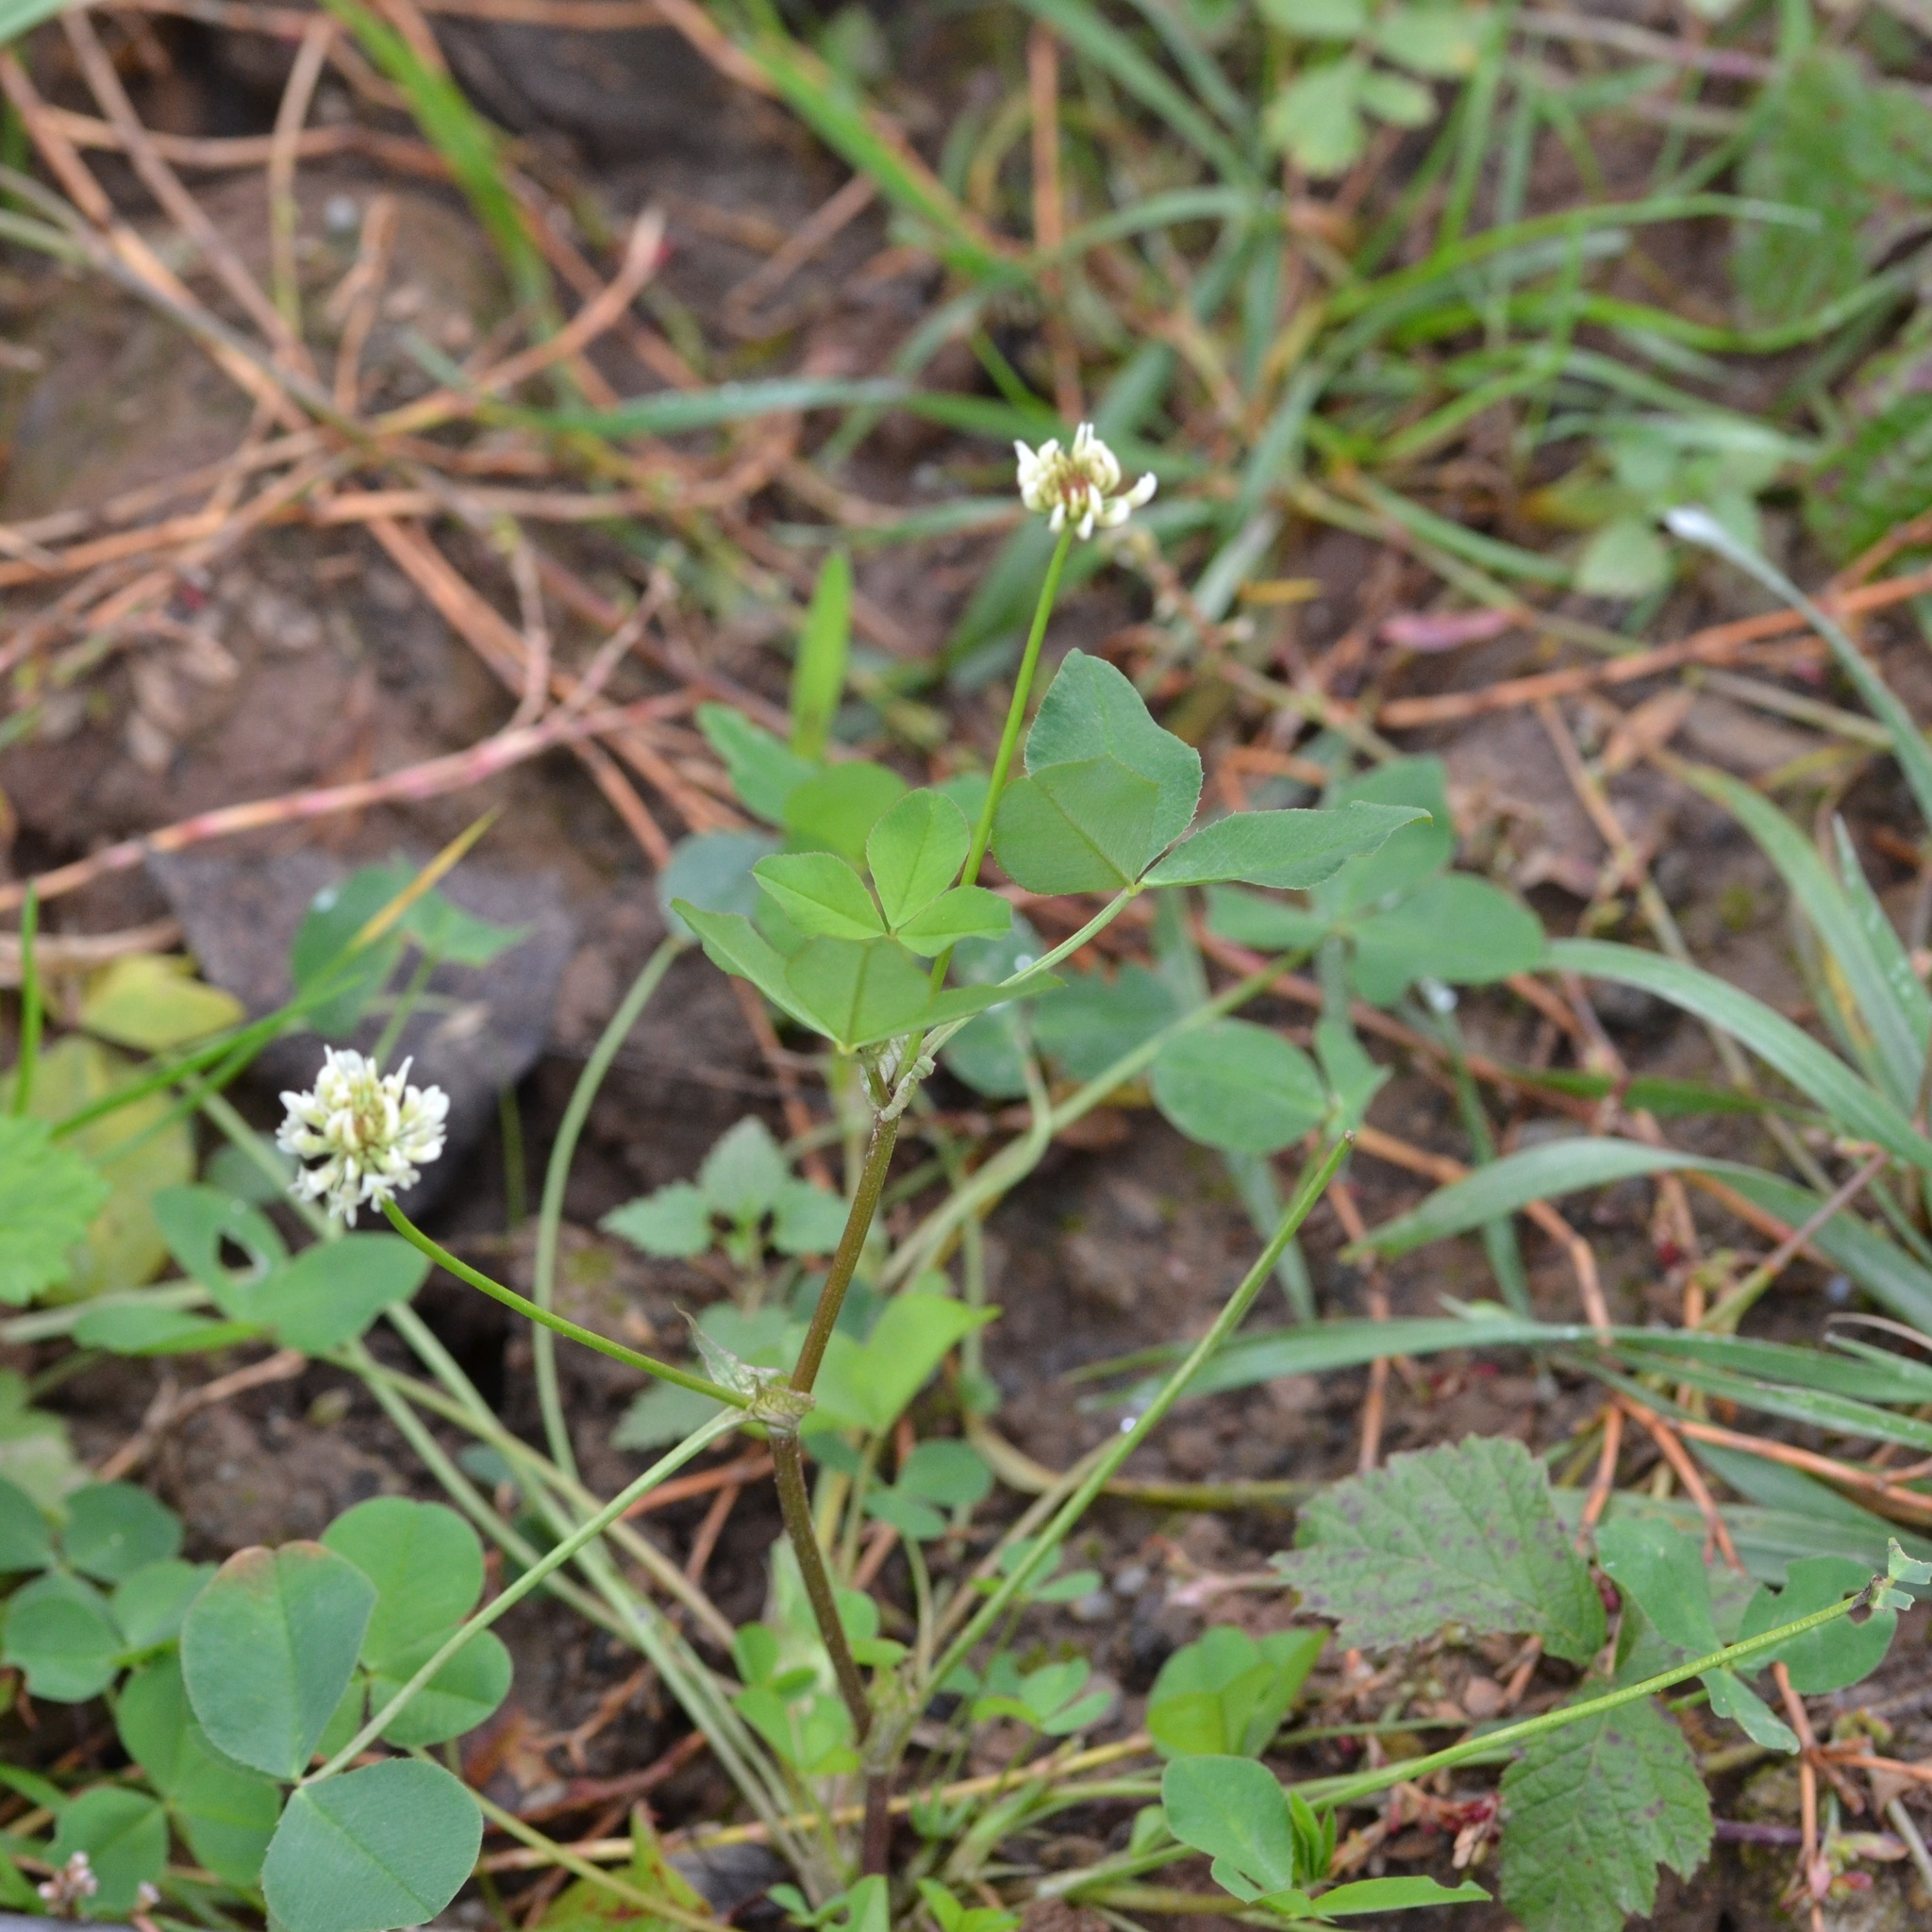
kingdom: Plantae
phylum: Tracheophyta
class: Magnoliopsida
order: Fabales
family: Fabaceae
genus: Trifolium
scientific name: Trifolium repens
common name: White clover
